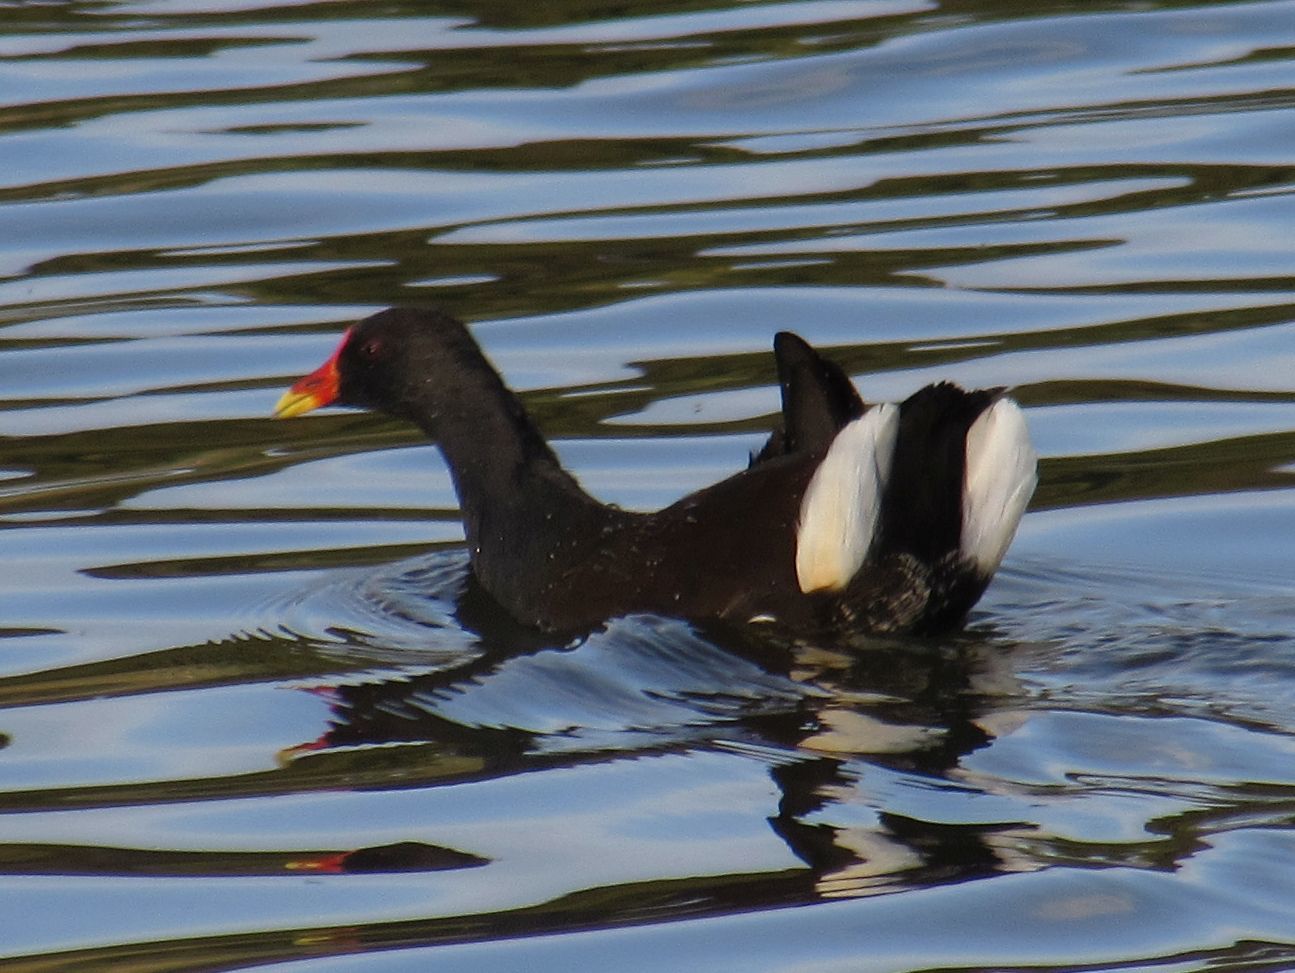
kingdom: Animalia
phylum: Chordata
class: Aves
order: Gruiformes
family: Rallidae
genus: Gallinula
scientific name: Gallinula chloropus
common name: Common moorhen
